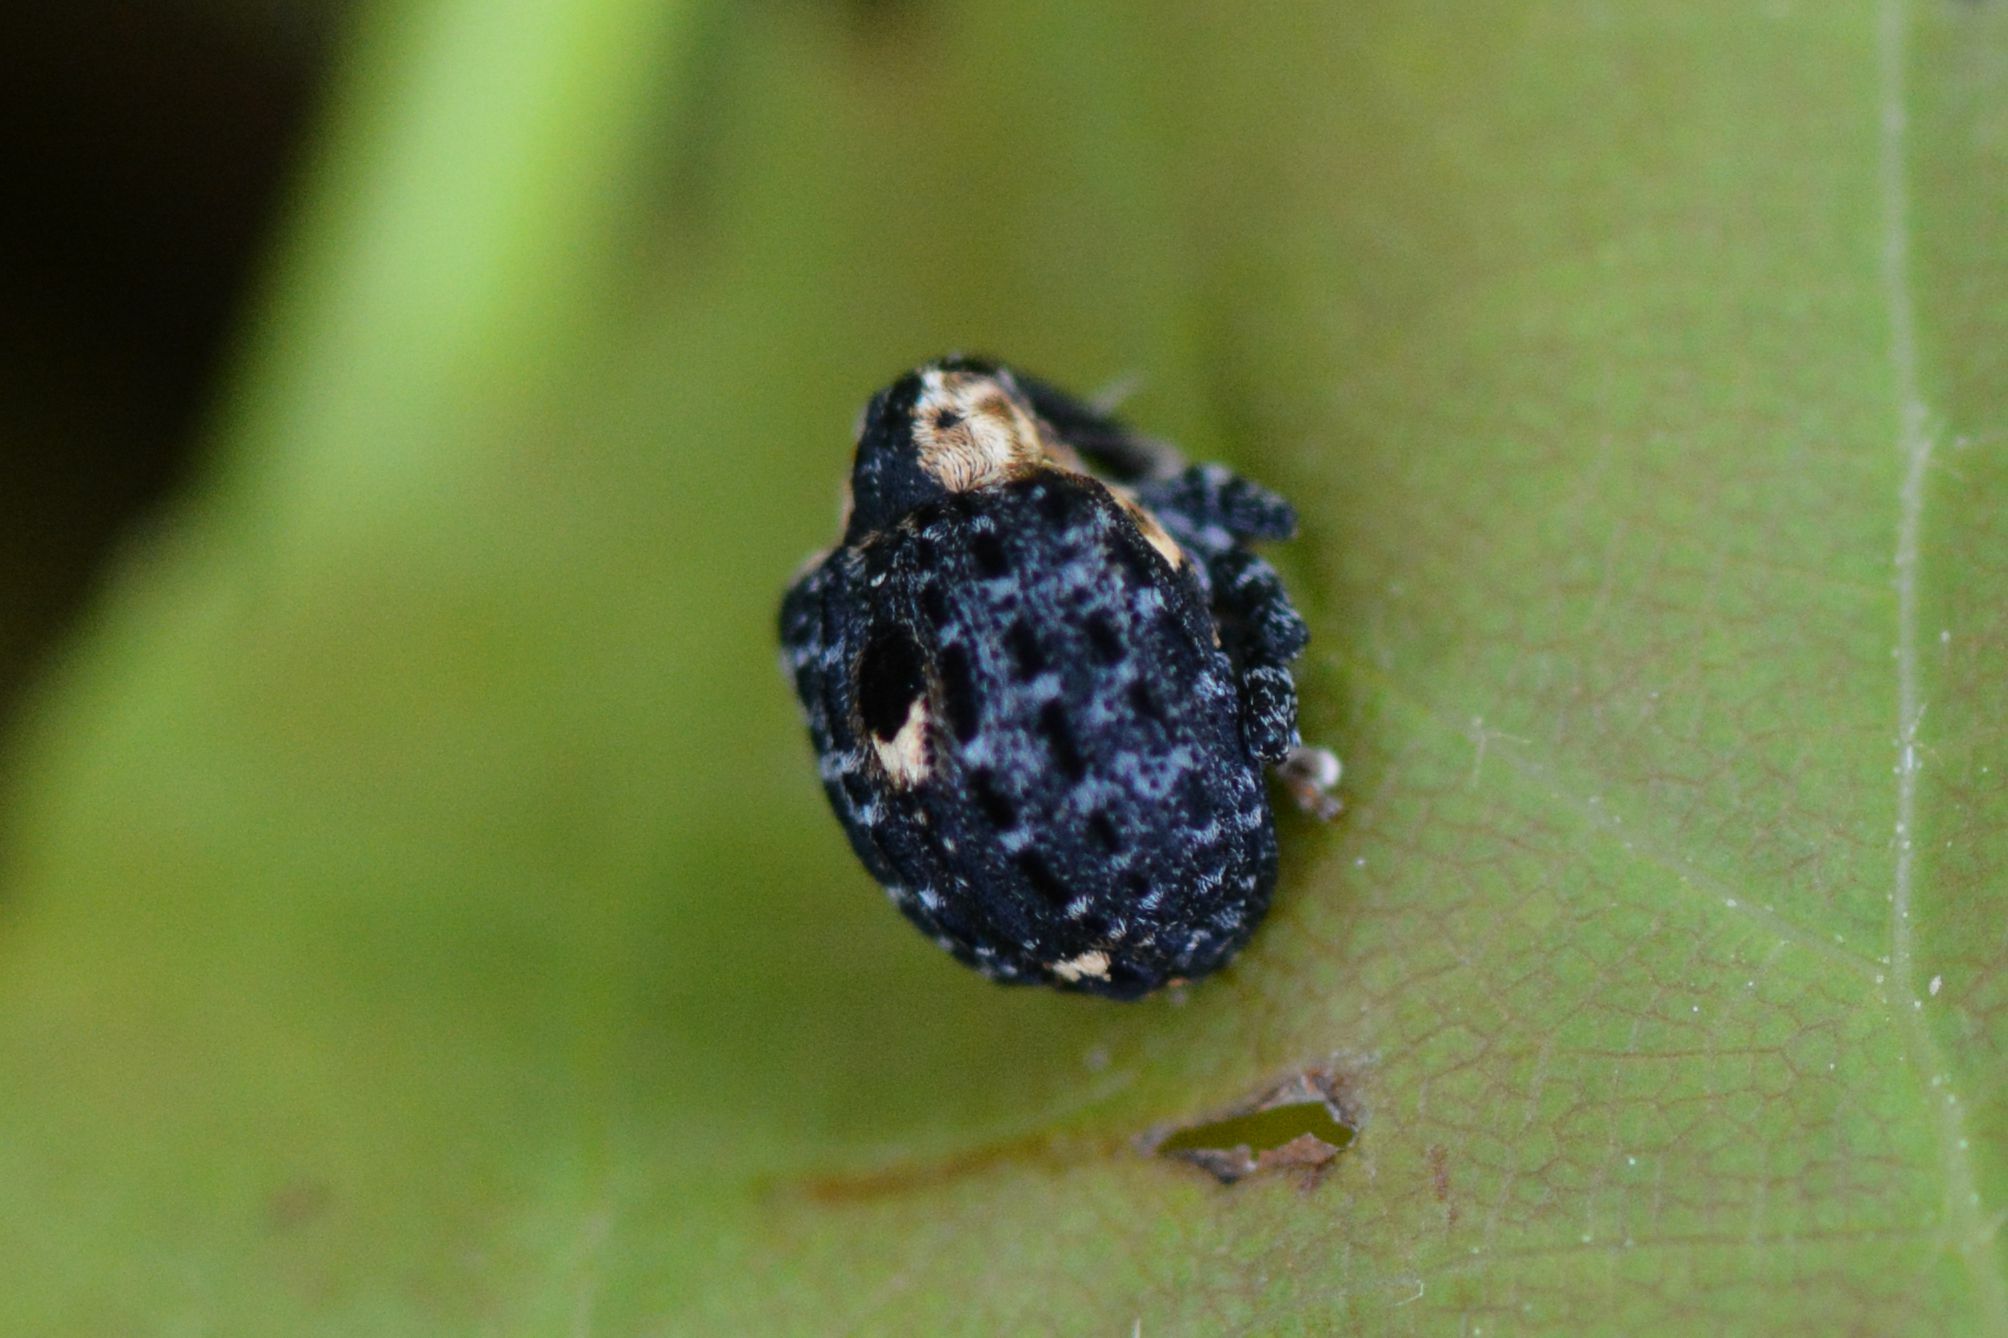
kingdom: Animalia
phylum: Arthropoda
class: Insecta
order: Coleoptera
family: Curculionidae
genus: Cionus
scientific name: Cionus tuberculosus
